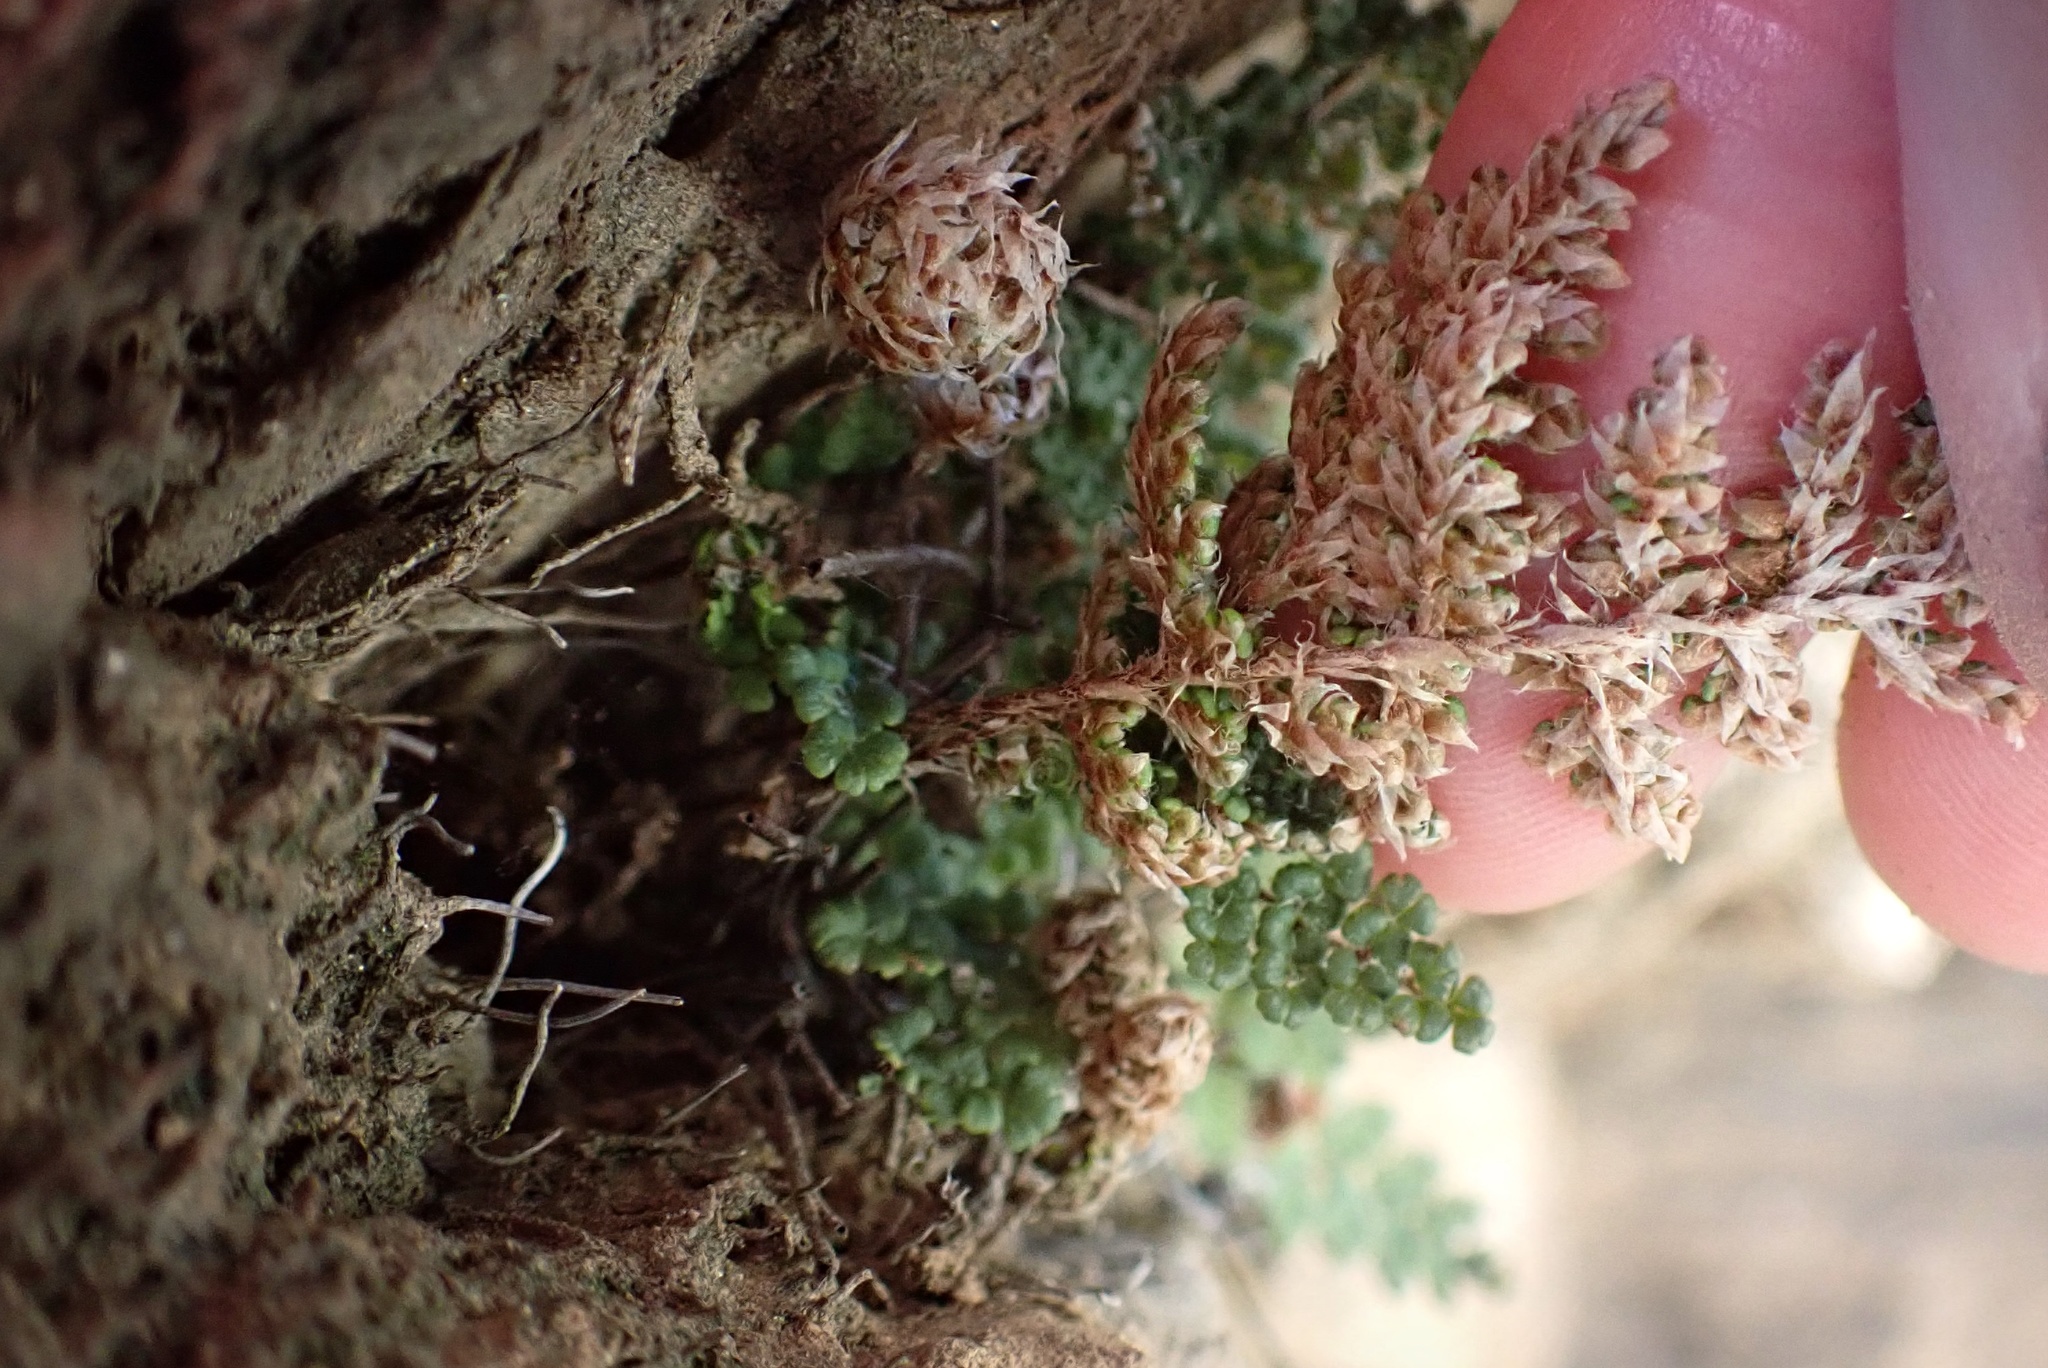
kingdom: Plantae
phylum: Tracheophyta
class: Polypodiopsida
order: Polypodiales
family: Pteridaceae
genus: Myriopteris
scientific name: Myriopteris covillei
